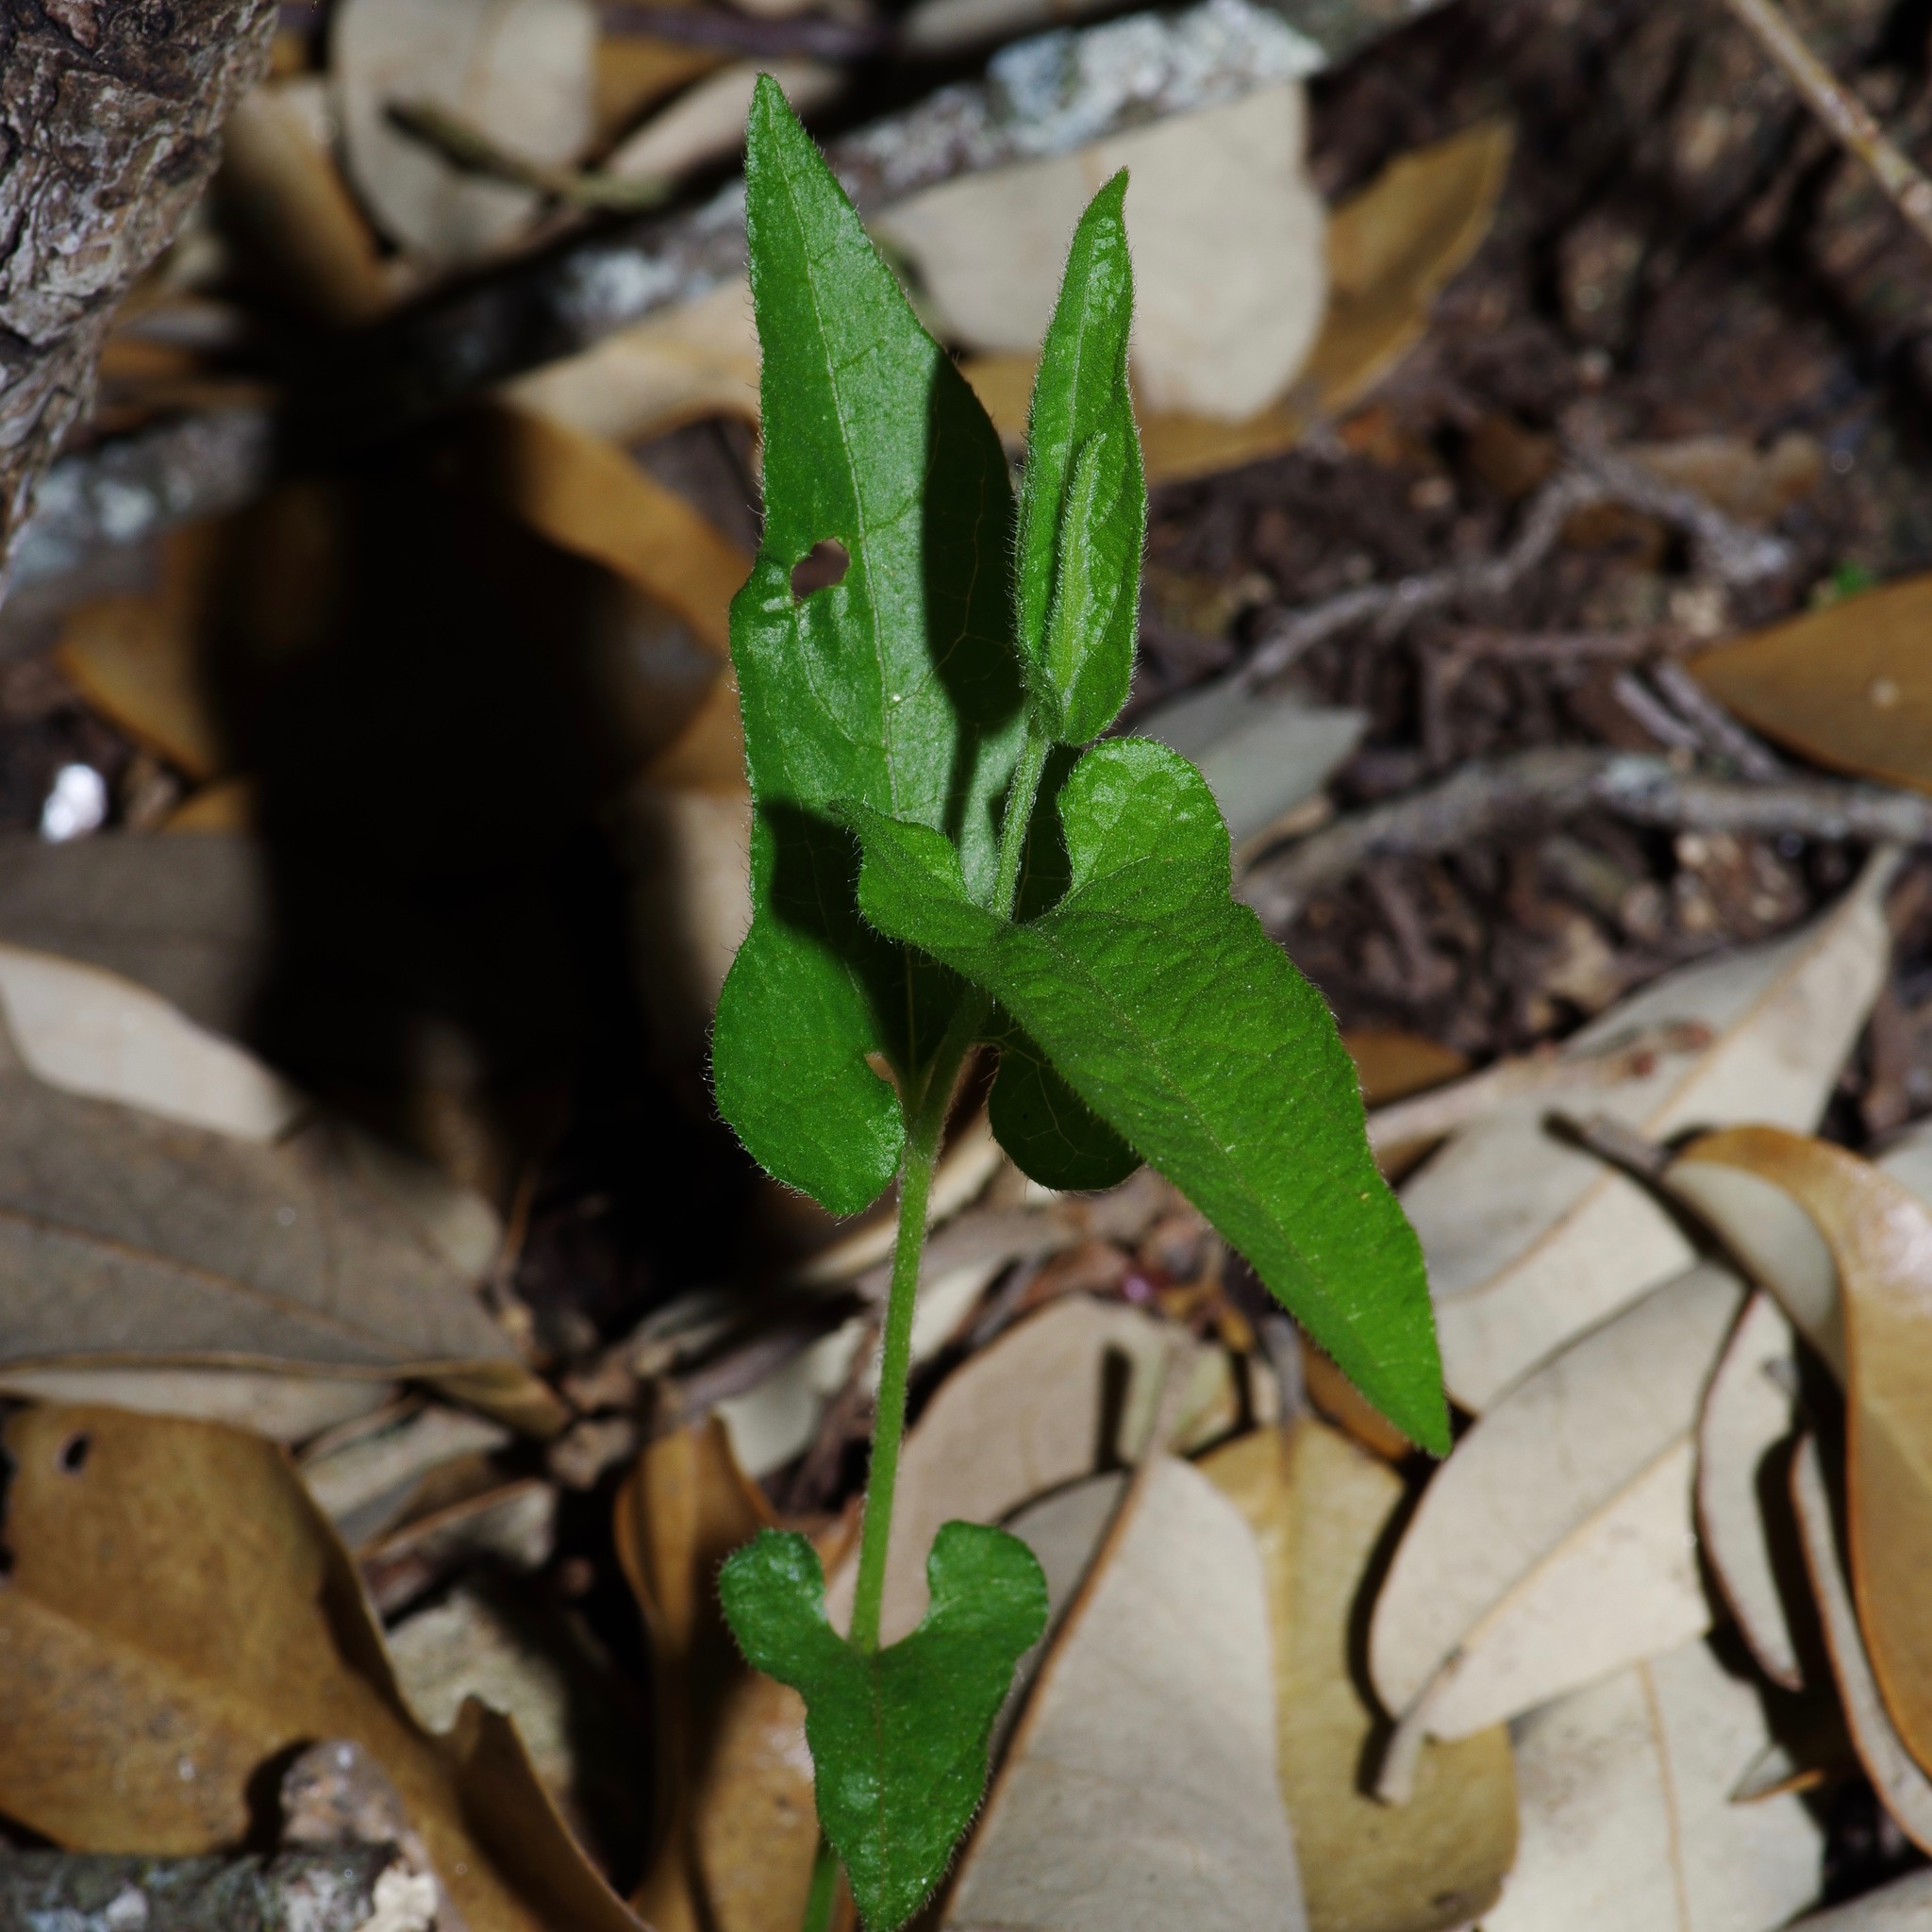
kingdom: Plantae
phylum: Tracheophyta
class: Magnoliopsida
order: Piperales
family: Aristolochiaceae
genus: Endodeca
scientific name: Endodeca serpentaria
